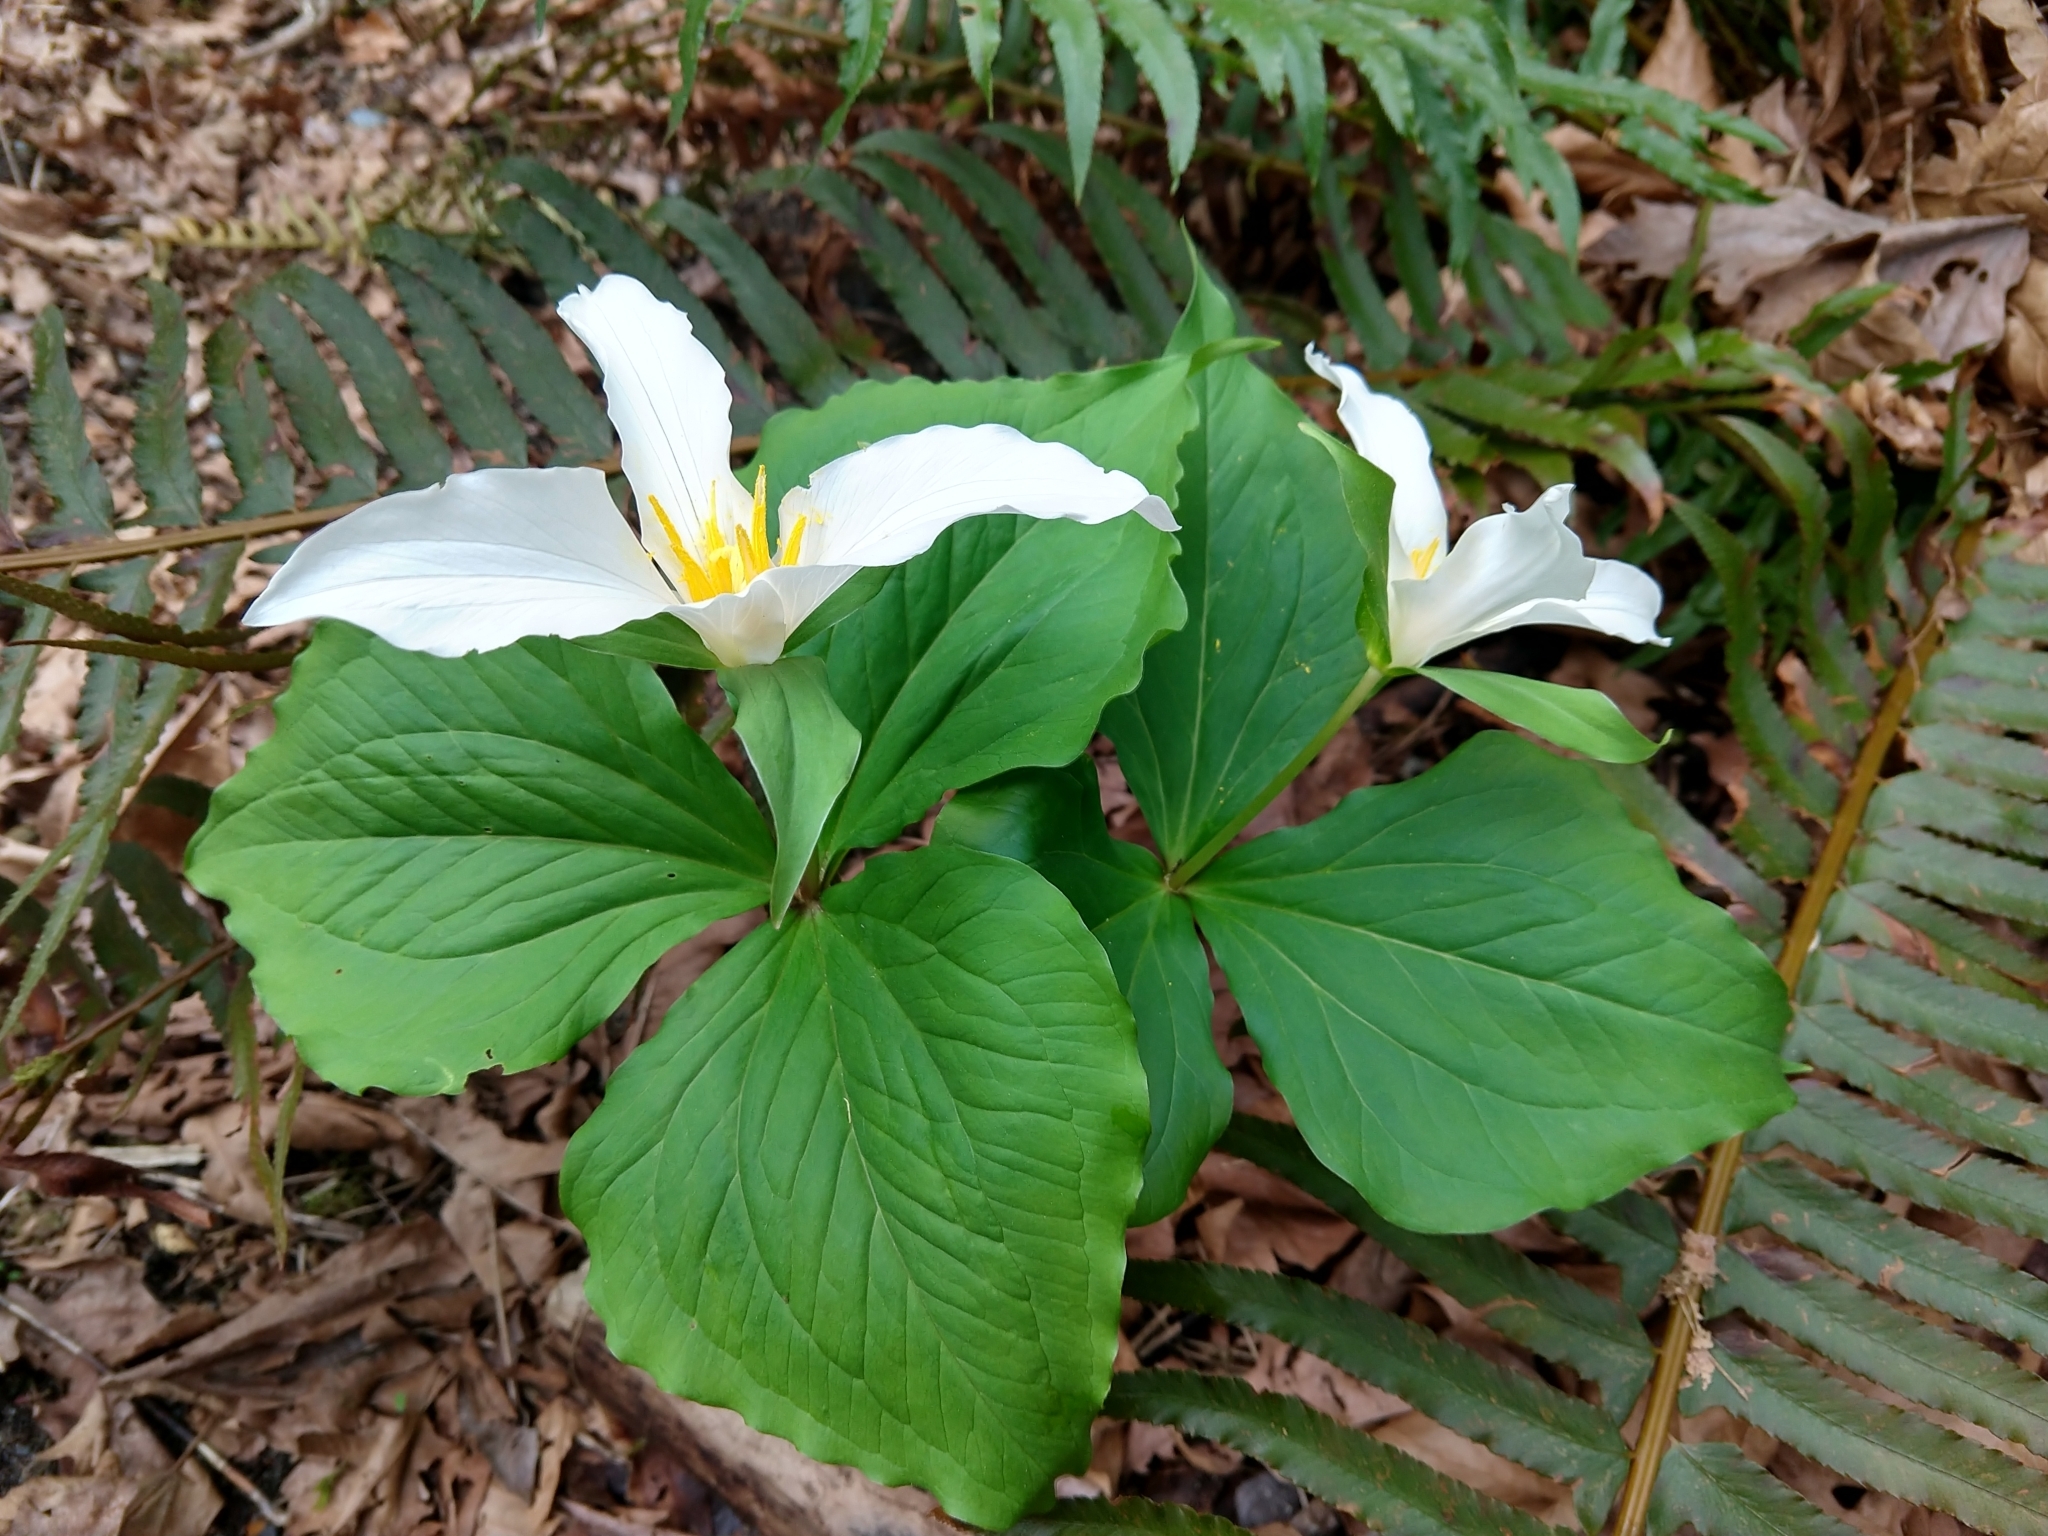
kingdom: Plantae
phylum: Tracheophyta
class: Liliopsida
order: Liliales
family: Melanthiaceae
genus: Trillium
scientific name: Trillium ovatum
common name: Pacific trillium
